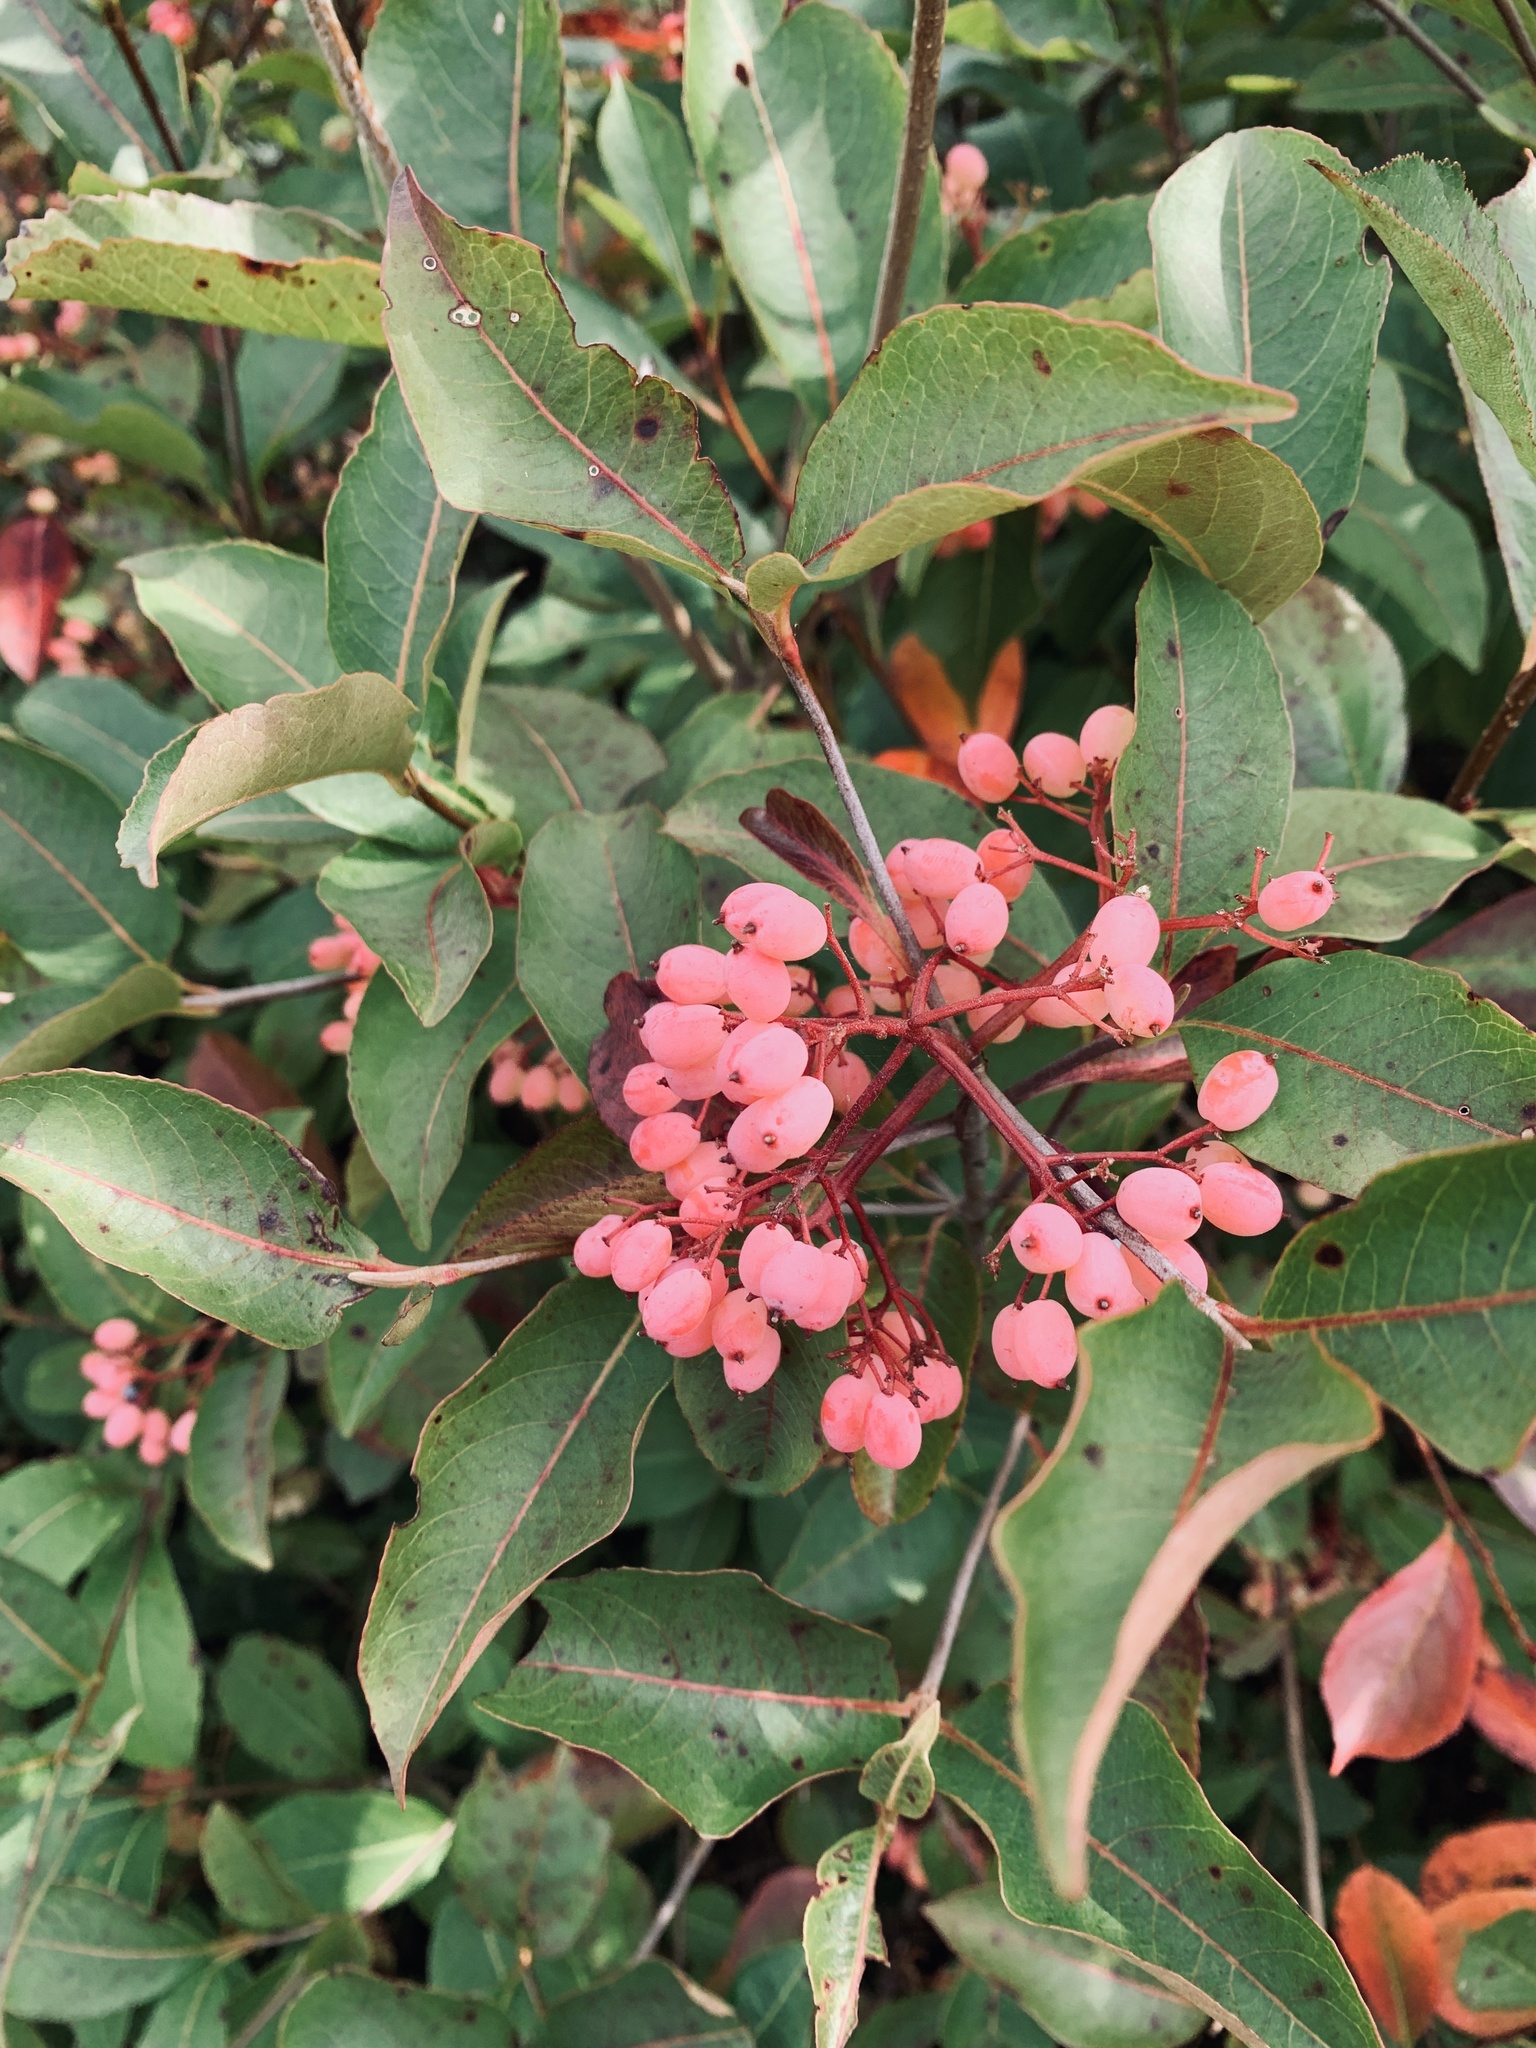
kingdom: Plantae
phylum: Tracheophyta
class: Magnoliopsida
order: Dipsacales
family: Viburnaceae
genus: Viburnum
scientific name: Viburnum cassinoides
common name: Swamp haw
